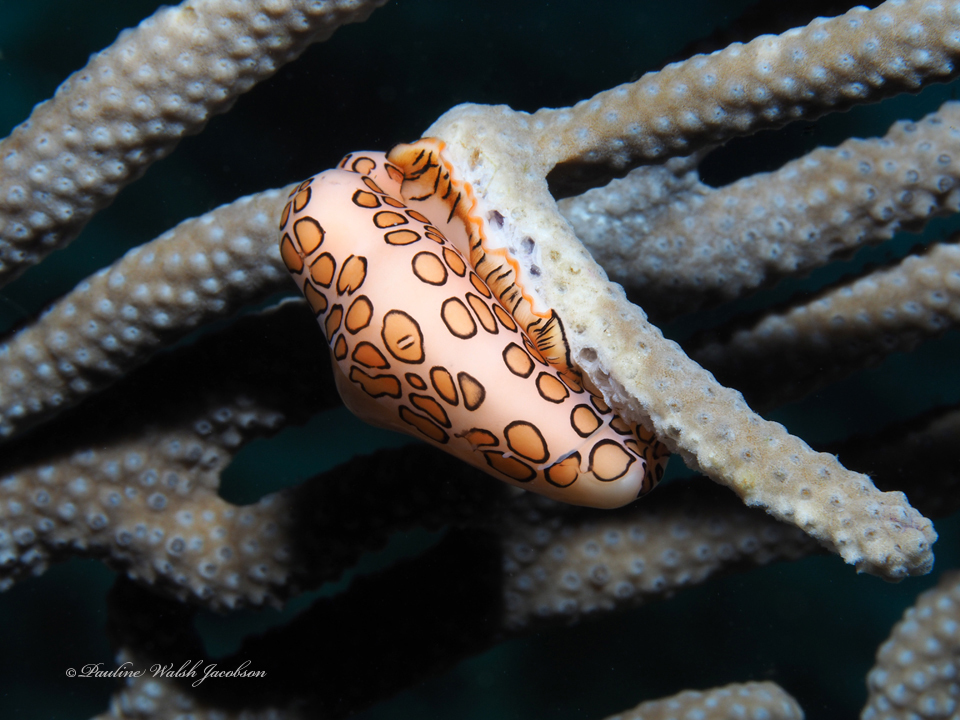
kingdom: Animalia
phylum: Mollusca
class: Gastropoda
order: Littorinimorpha
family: Ovulidae
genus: Cyphoma
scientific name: Cyphoma gibbosum
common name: Flamingo tongue
